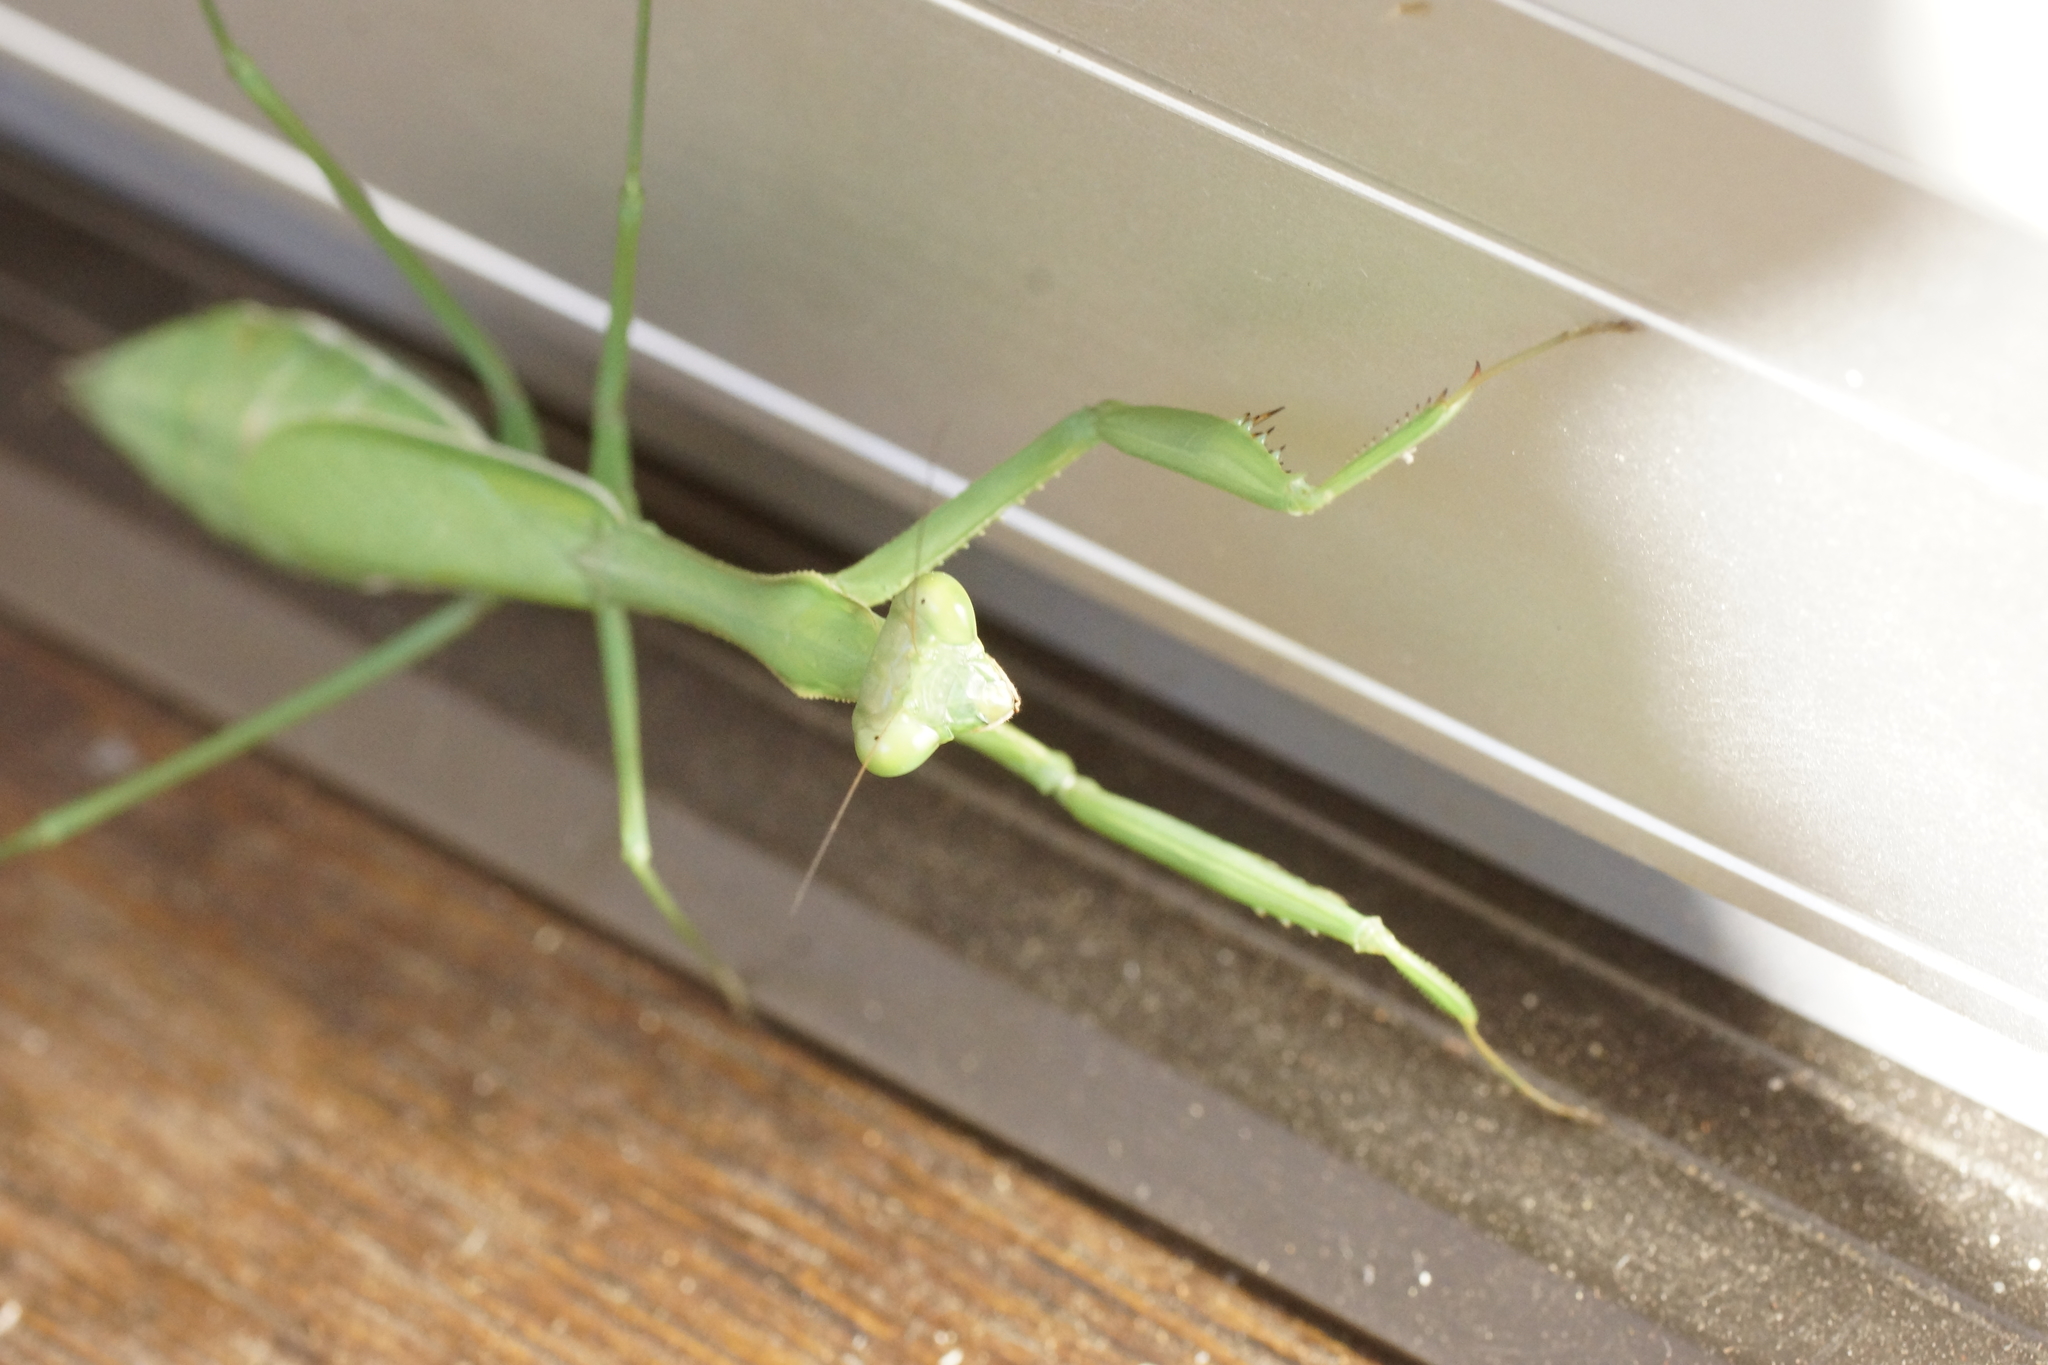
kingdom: Animalia
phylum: Arthropoda
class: Insecta
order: Mantodea
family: Mantidae
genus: Pseudomantis
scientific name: Pseudomantis albofimbriata
